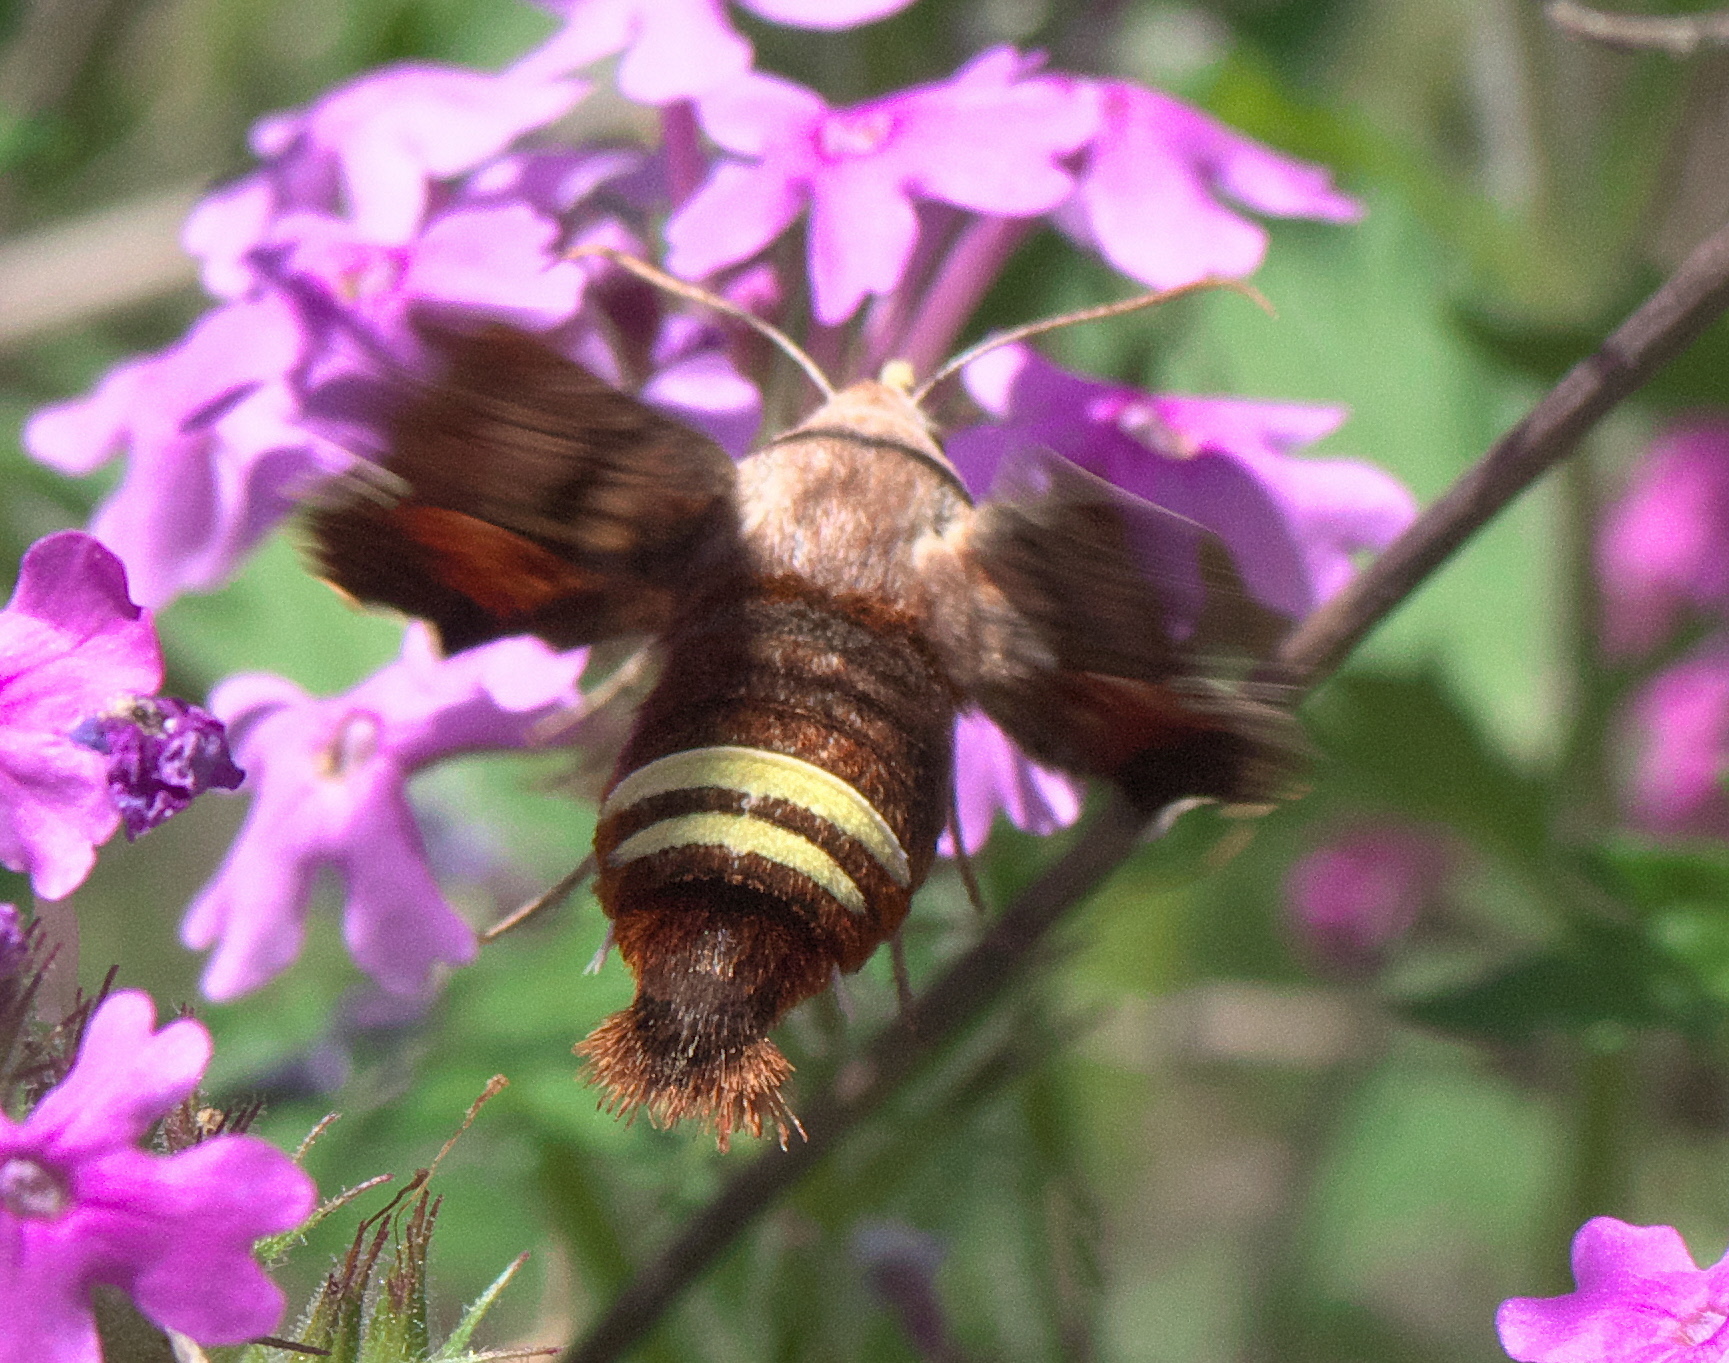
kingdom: Animalia
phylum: Arthropoda
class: Insecta
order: Lepidoptera
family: Sphingidae
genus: Amphion
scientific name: Amphion floridensis
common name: Nessus sphinx
